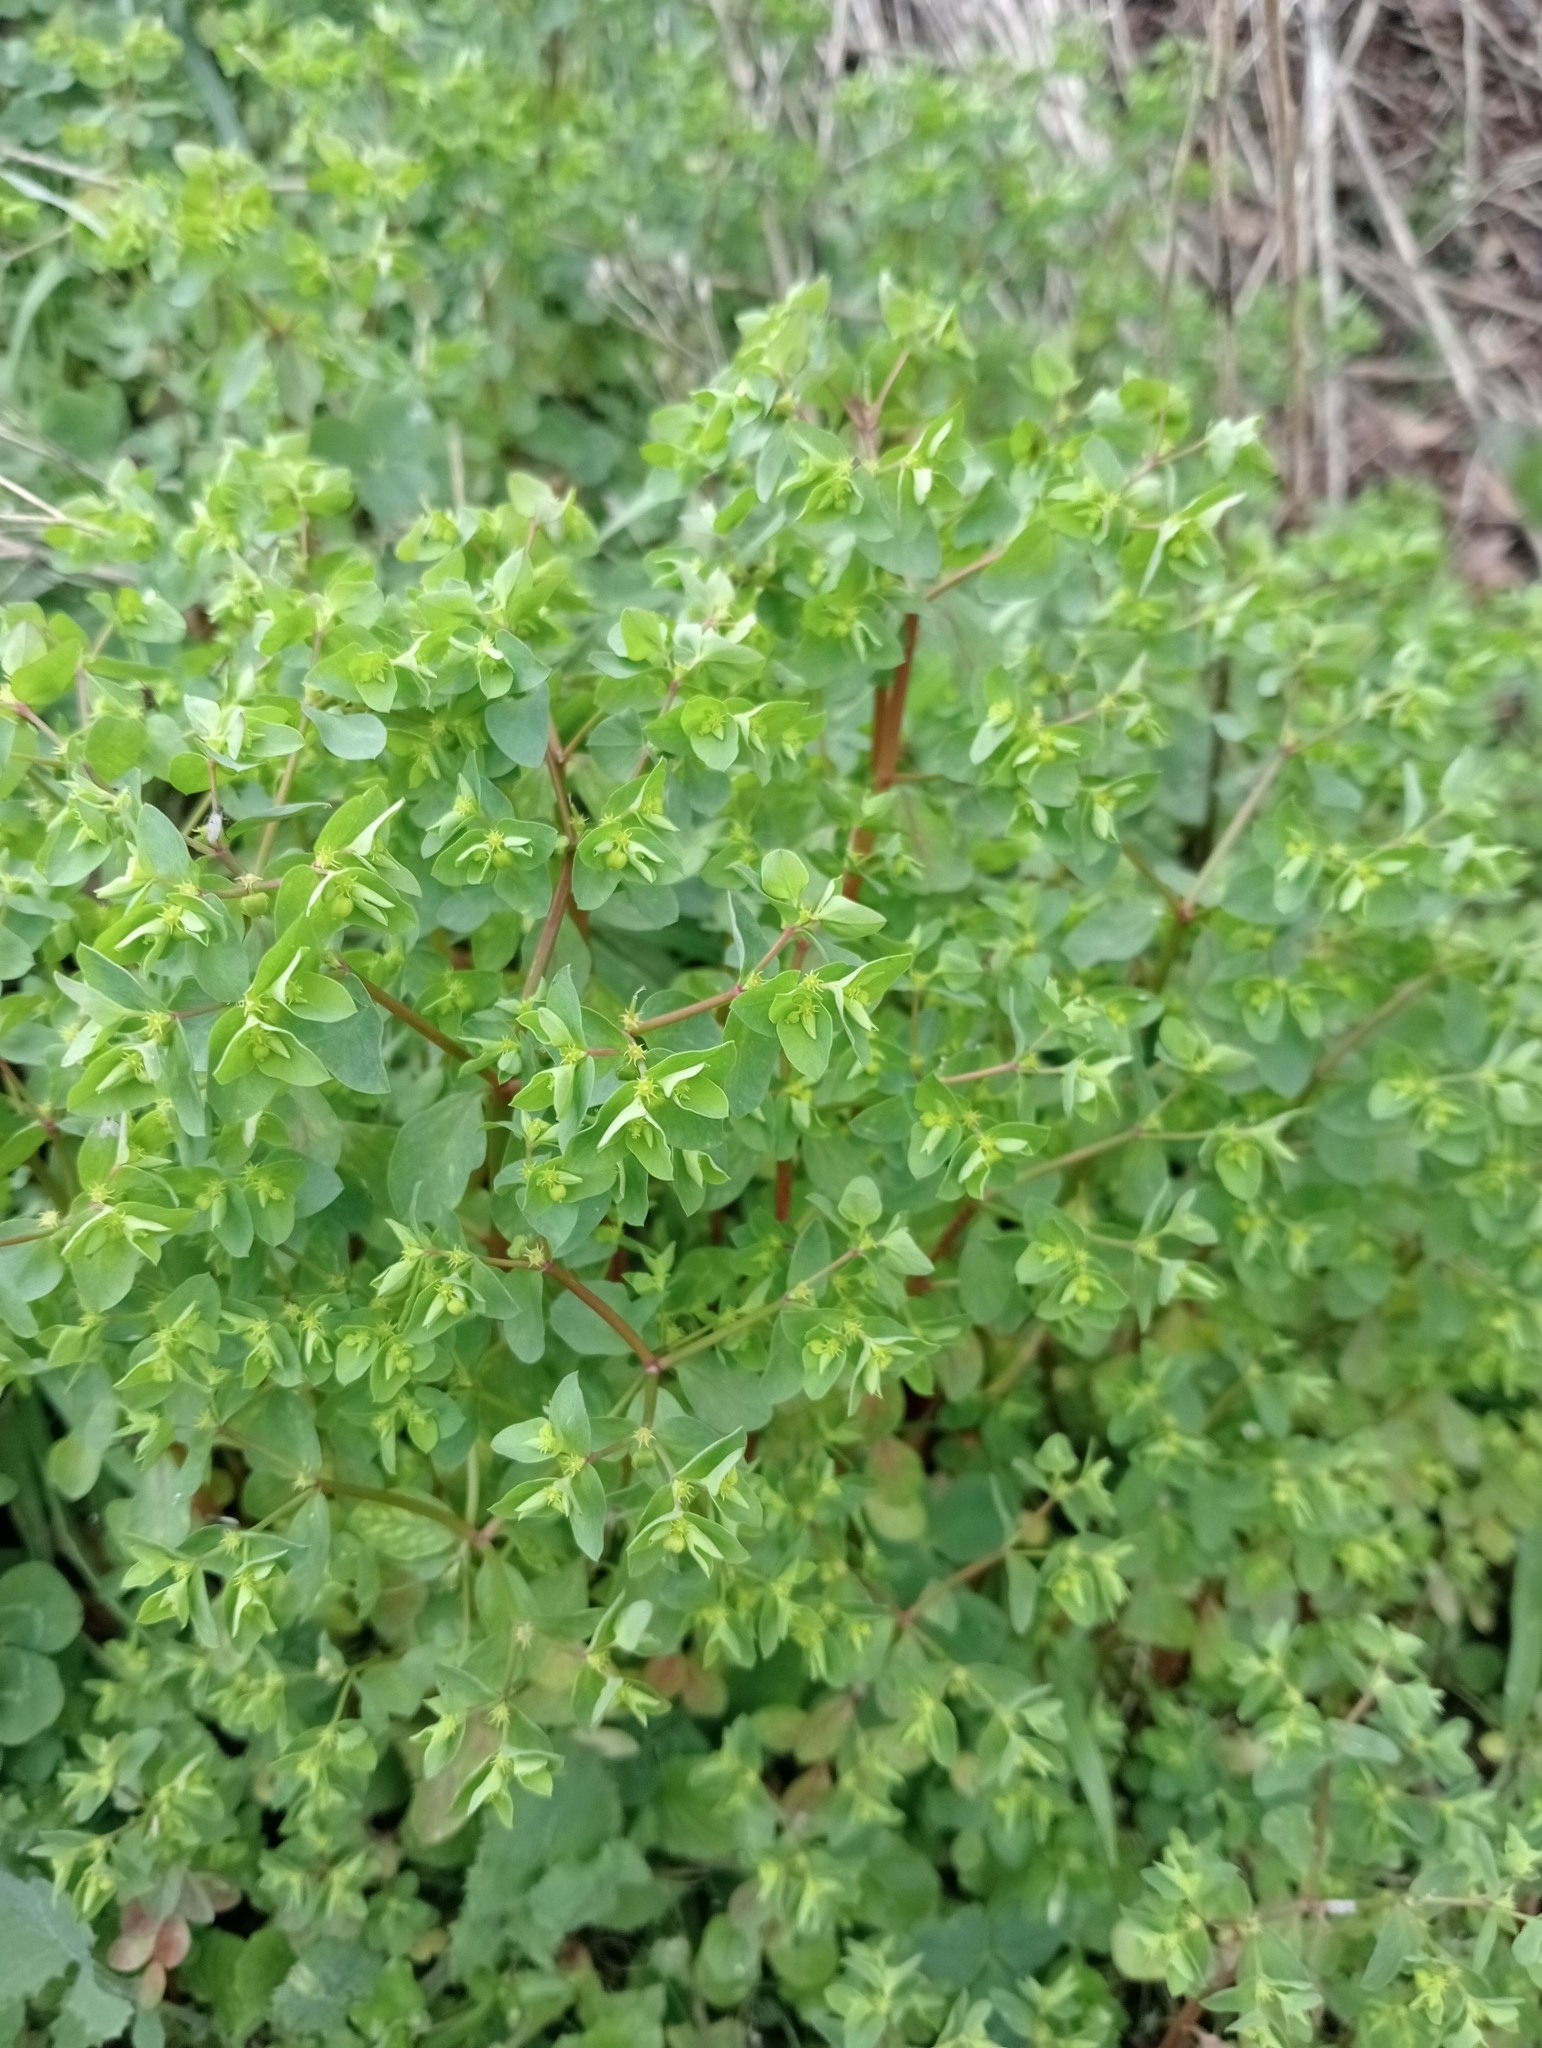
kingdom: Plantae
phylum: Tracheophyta
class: Magnoliopsida
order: Malpighiales
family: Euphorbiaceae
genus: Euphorbia
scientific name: Euphorbia peplus
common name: Petty spurge
